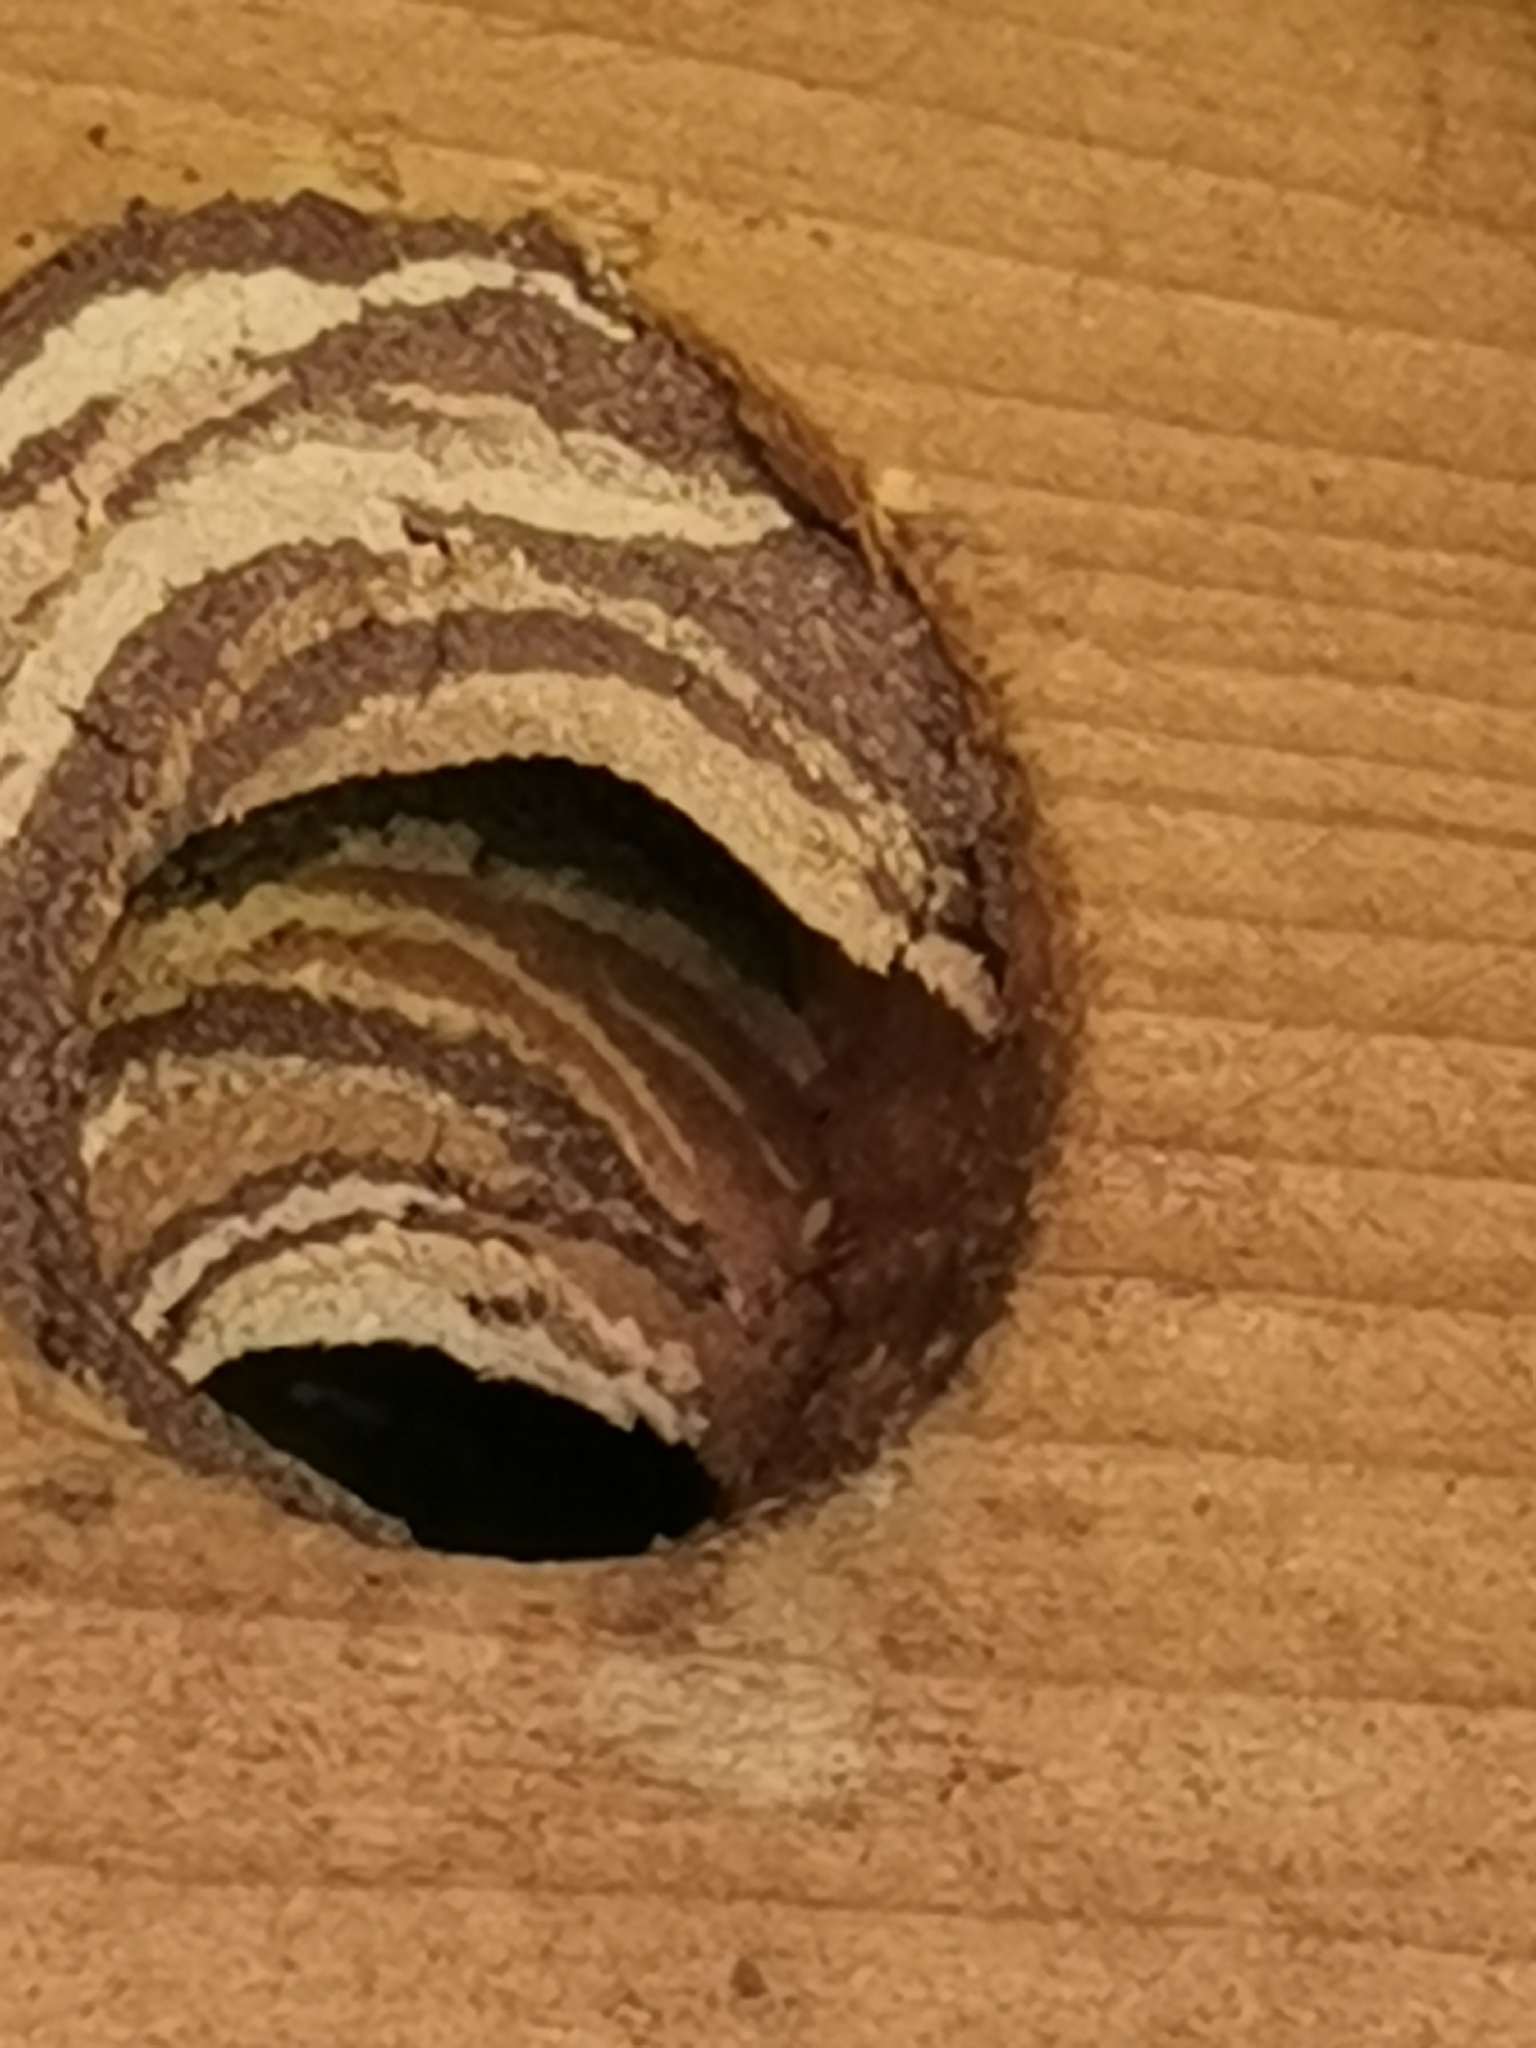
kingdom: Animalia
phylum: Arthropoda
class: Insecta
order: Hymenoptera
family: Vespidae
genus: Vespa
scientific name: Vespa velutina
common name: Asian hornet
